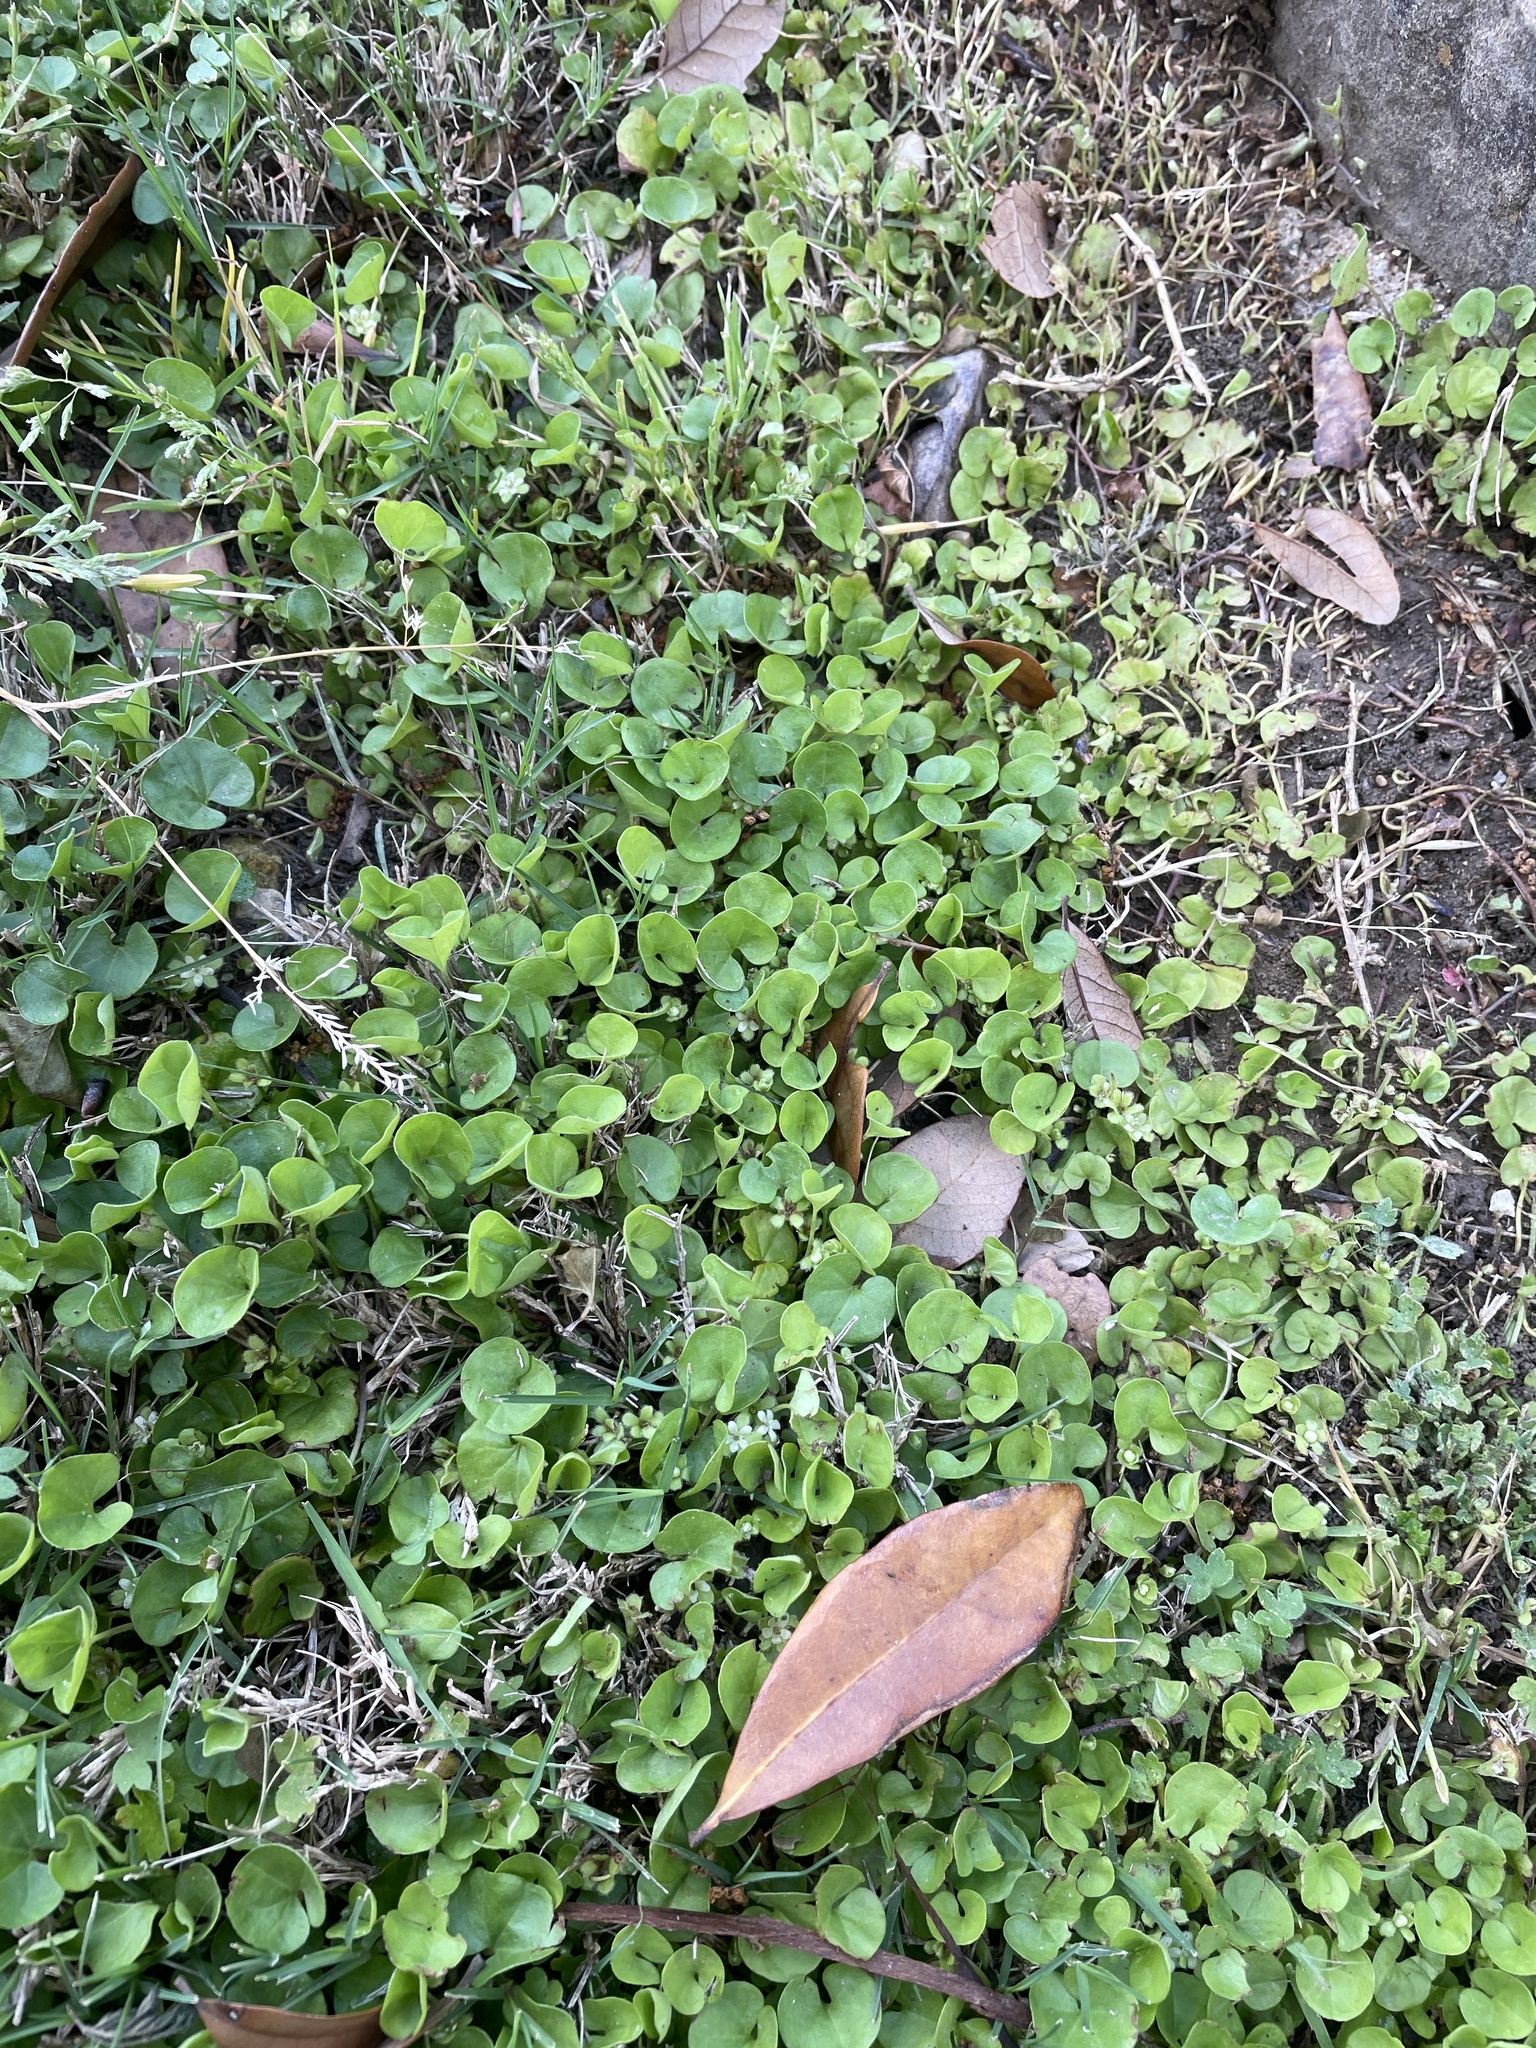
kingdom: Plantae
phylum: Tracheophyta
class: Magnoliopsida
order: Solanales
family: Convolvulaceae
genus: Dichondra
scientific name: Dichondra carolinensis
